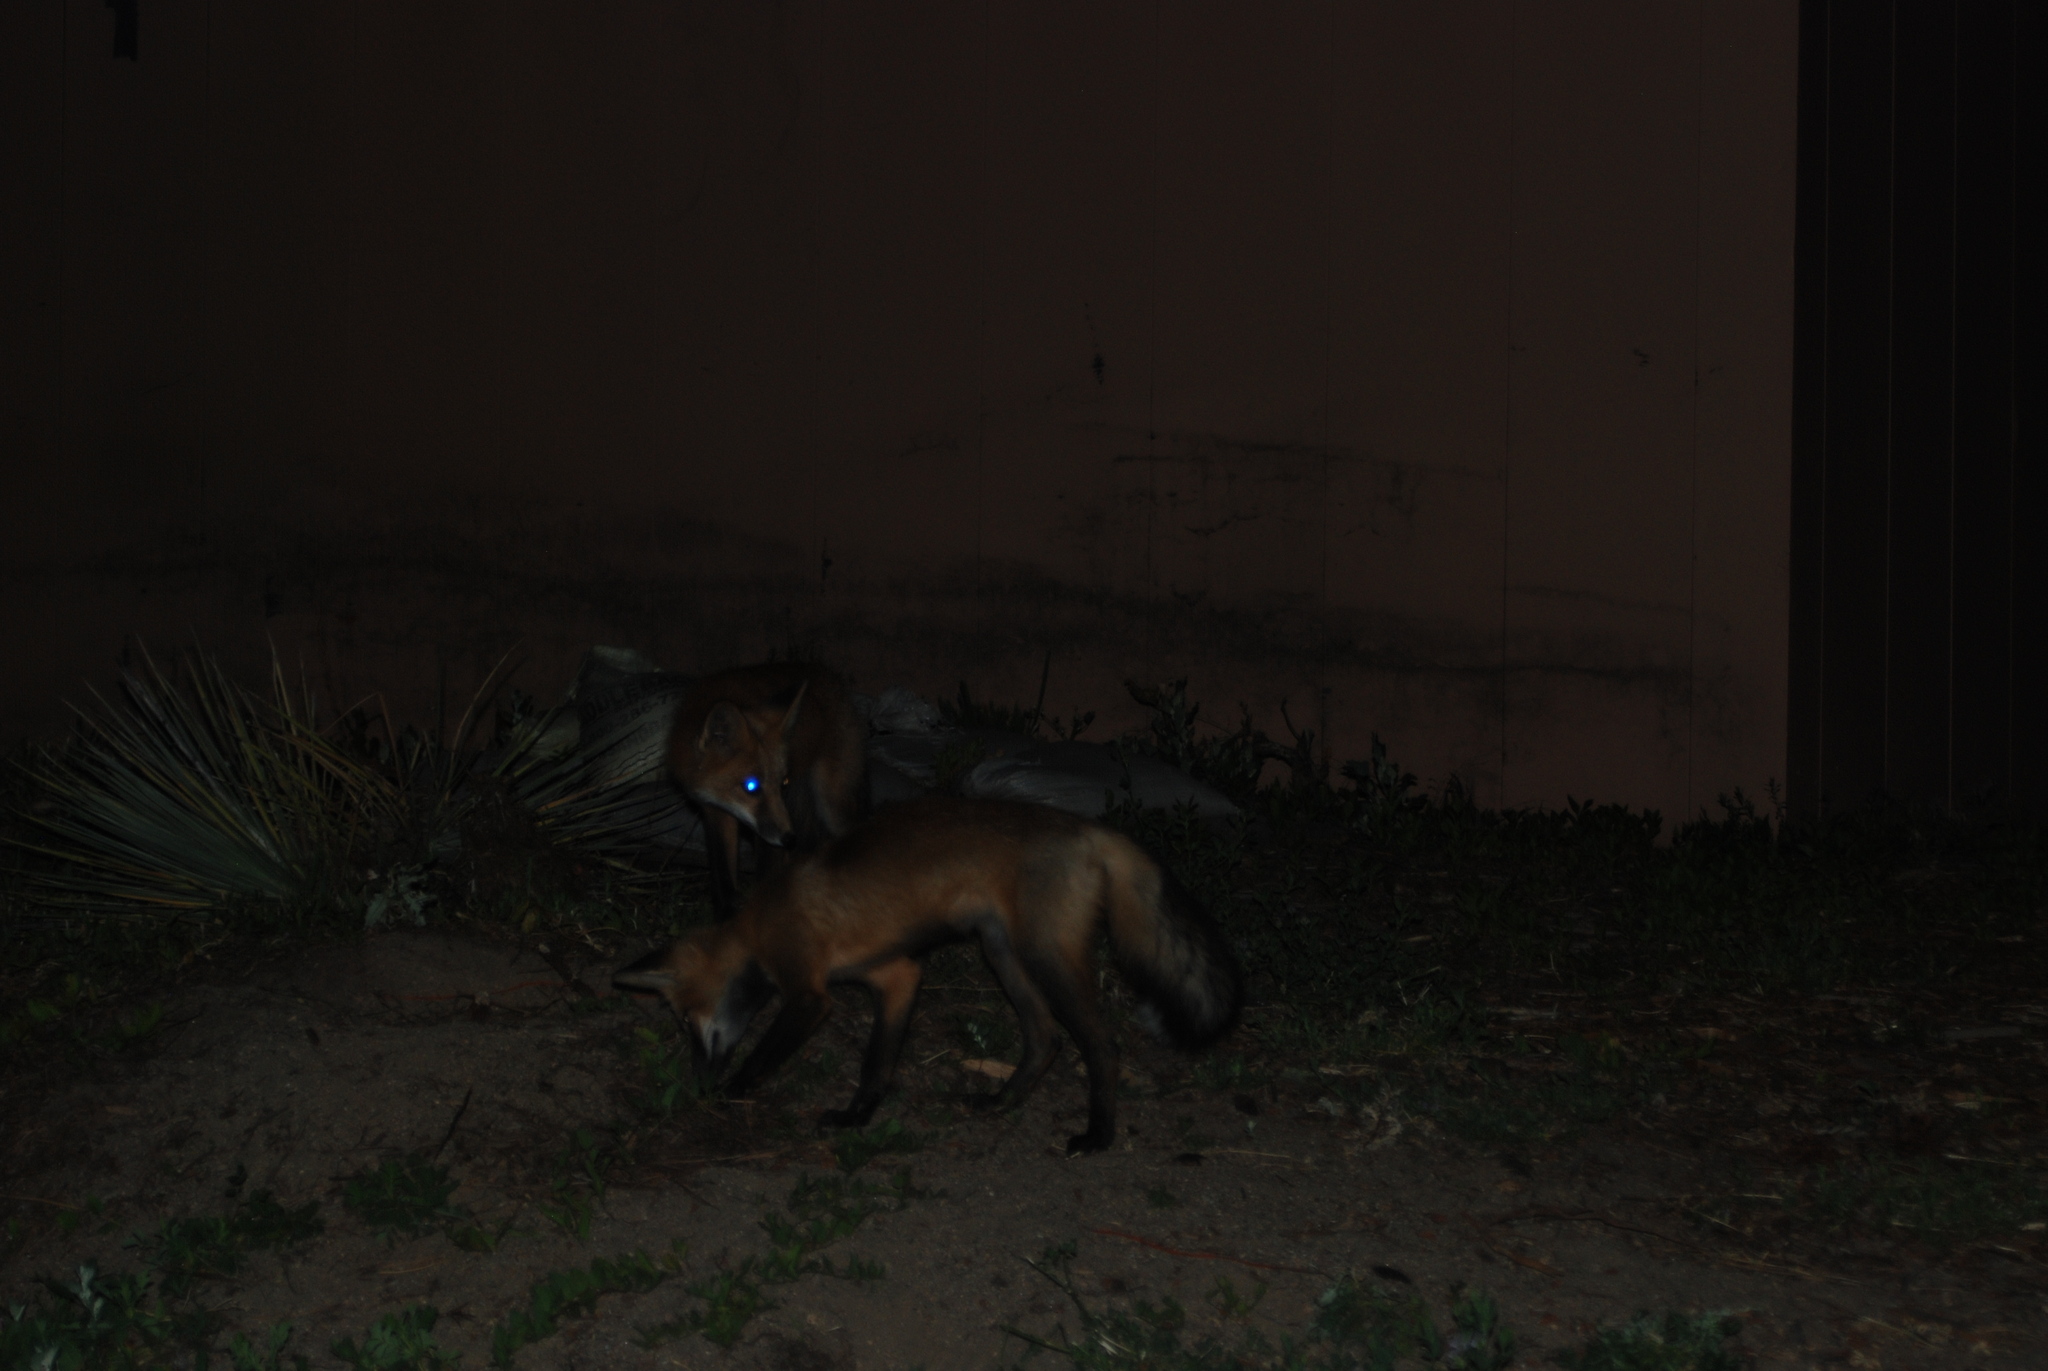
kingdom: Animalia
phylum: Chordata
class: Mammalia
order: Carnivora
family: Canidae
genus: Vulpes
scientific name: Vulpes vulpes
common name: Red fox
